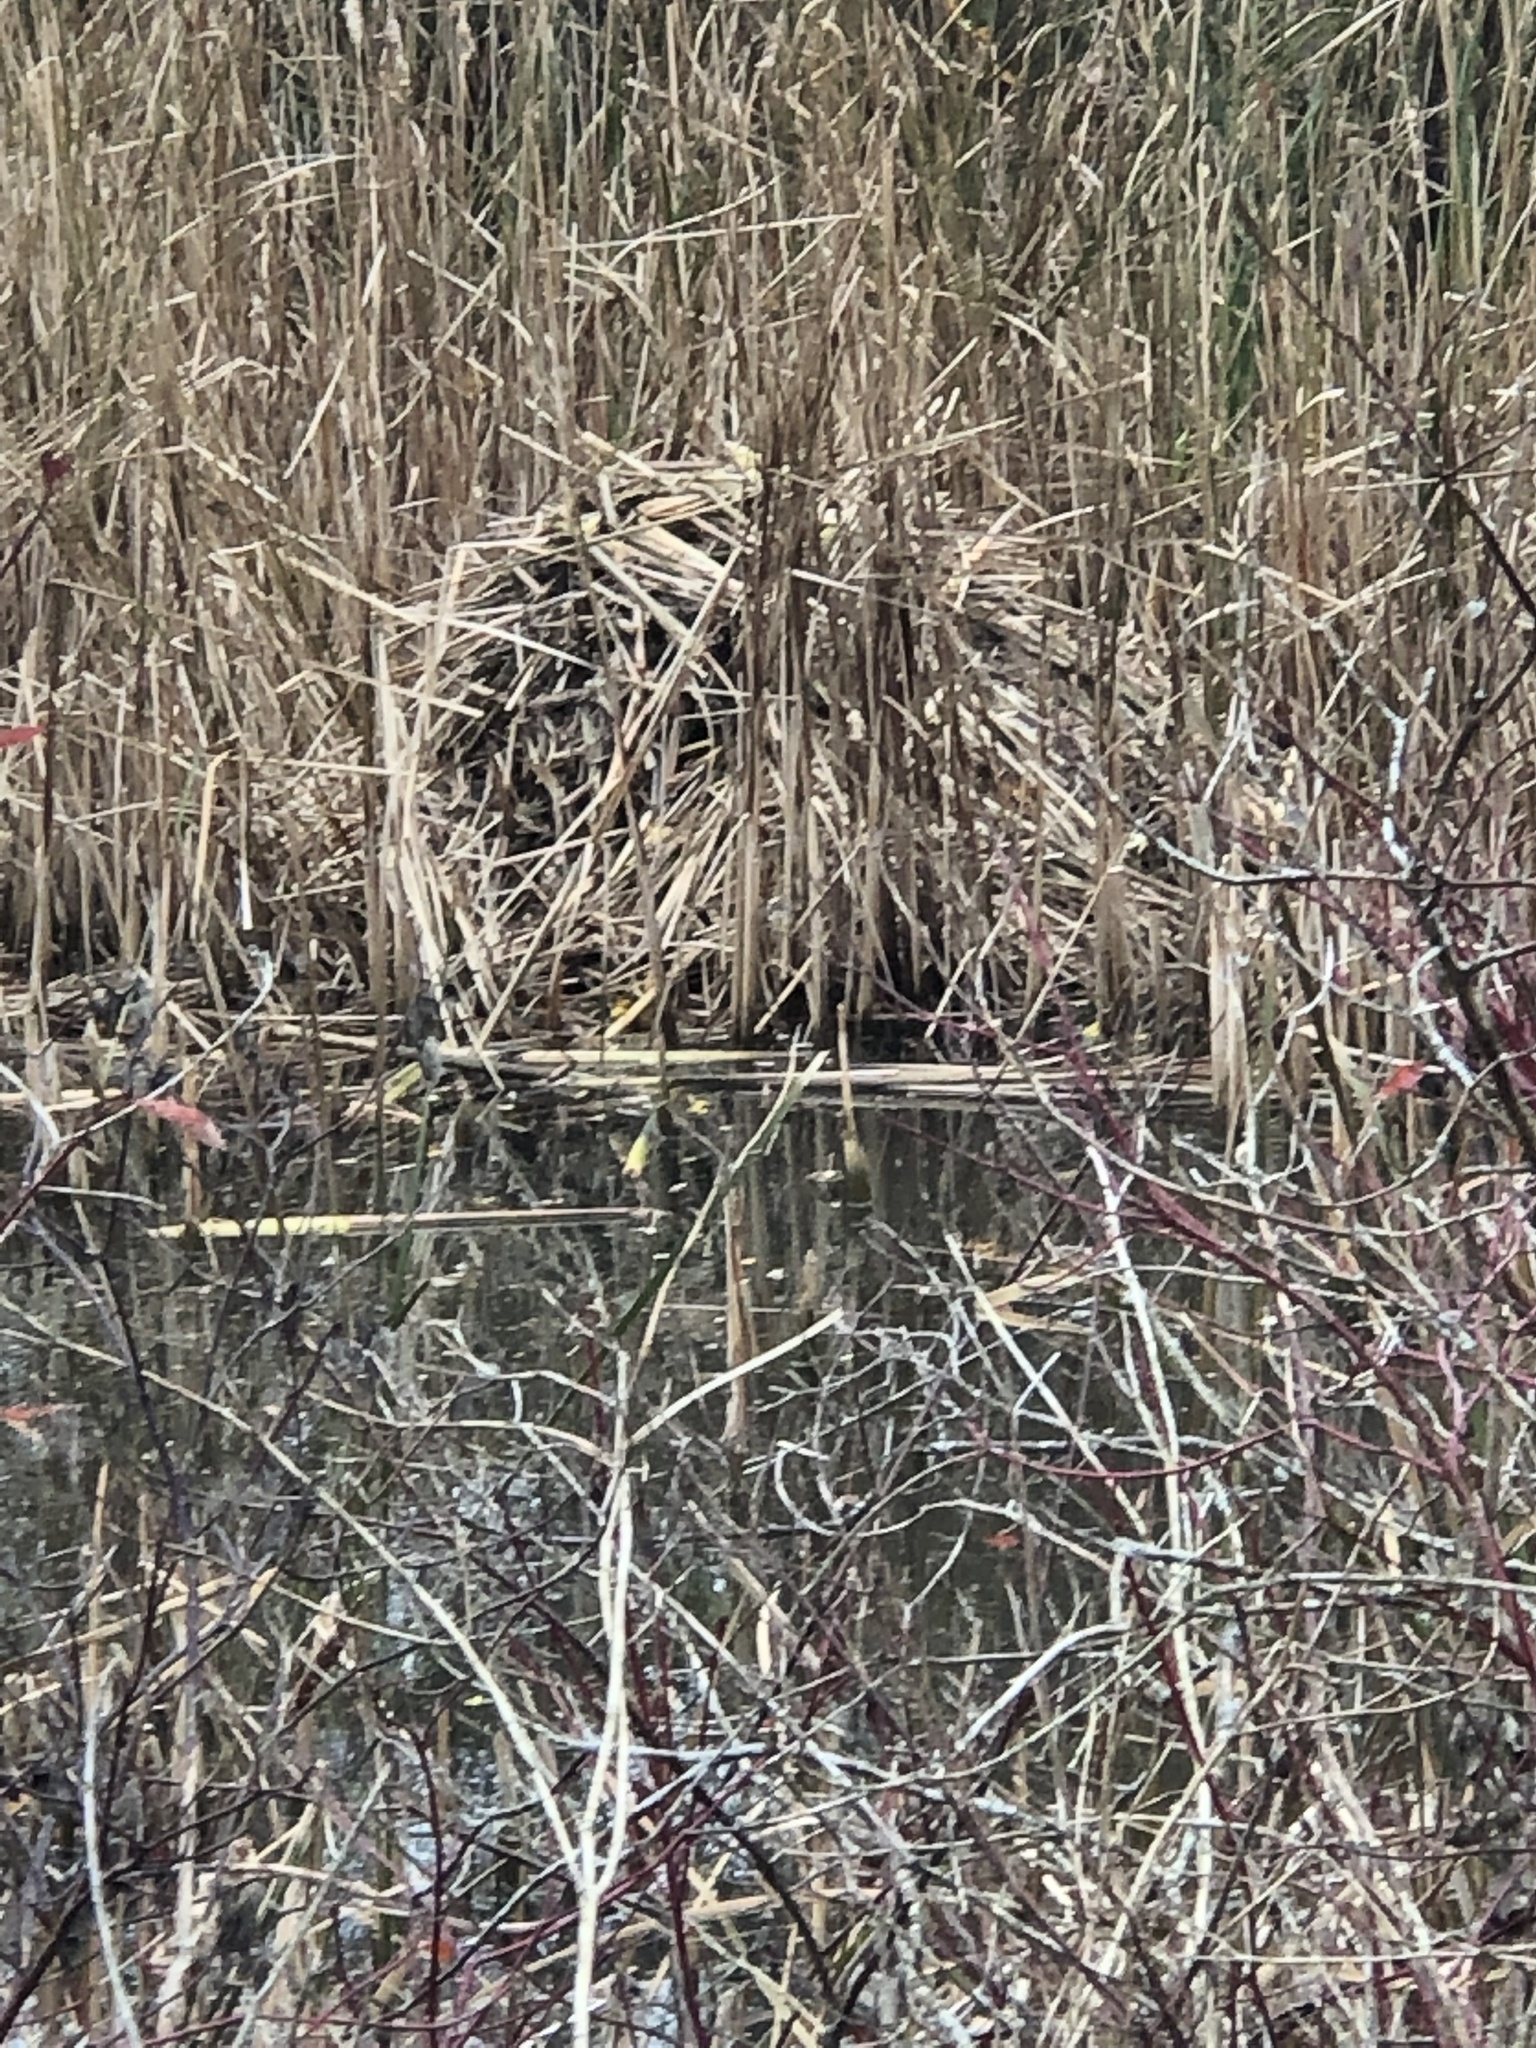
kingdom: Animalia
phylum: Chordata
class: Mammalia
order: Rodentia
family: Cricetidae
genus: Ondatra
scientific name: Ondatra zibethicus
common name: Muskrat
